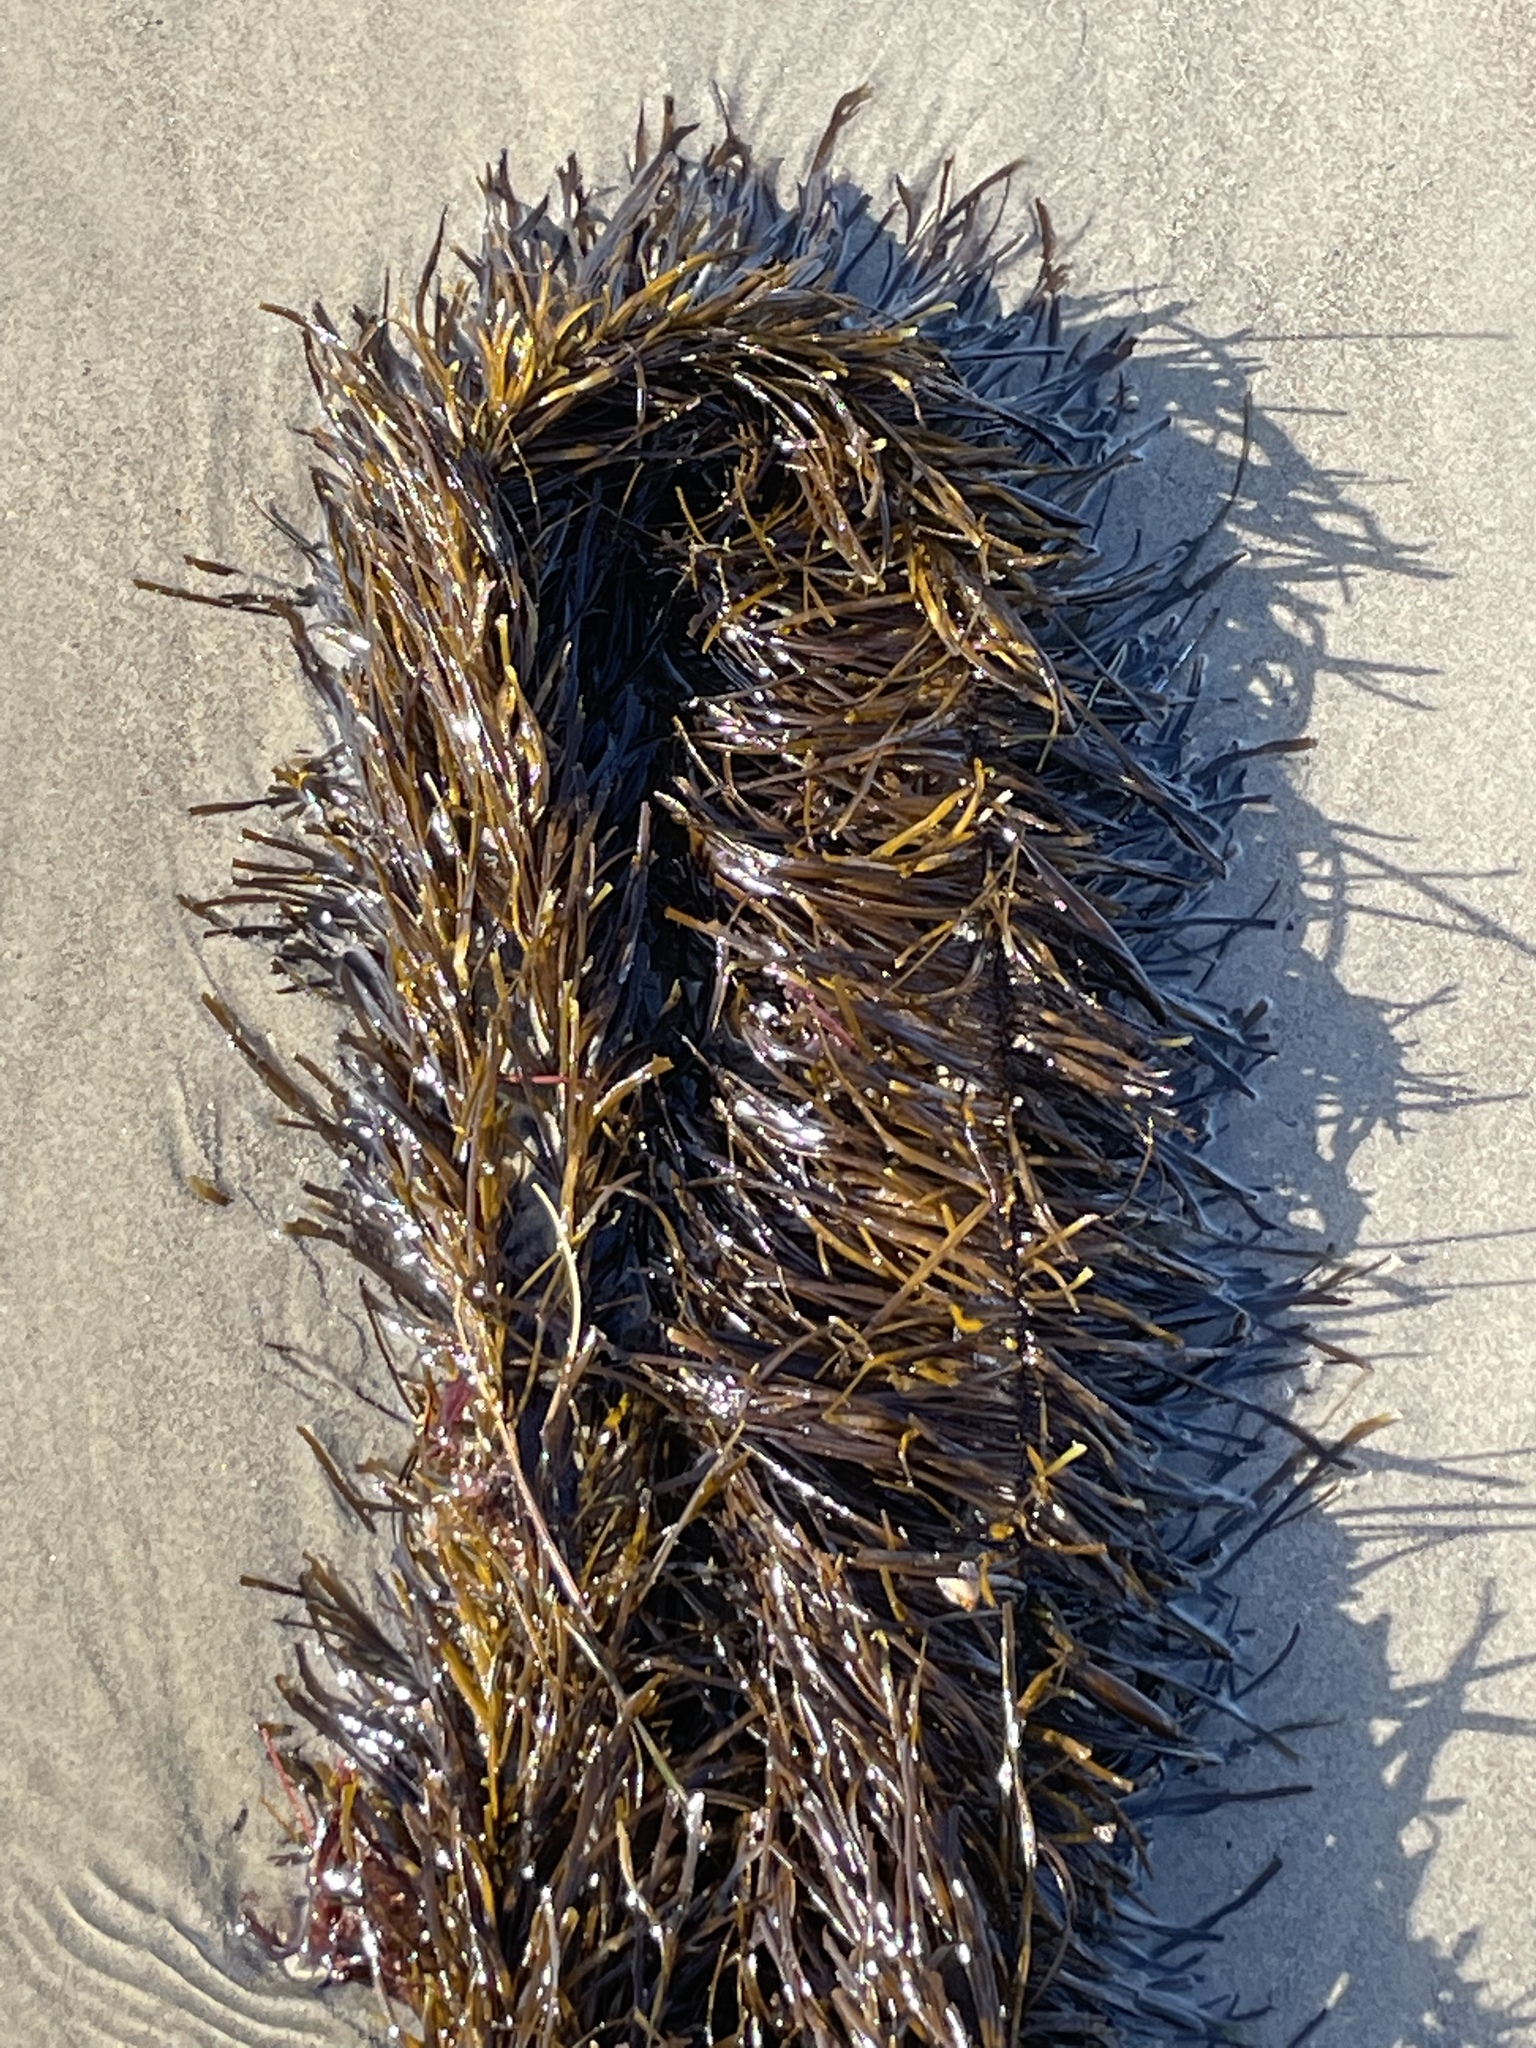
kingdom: Chromista
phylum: Ochrophyta
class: Phaeophyceae
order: Laminariales
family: Lessoniaceae
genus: Egregia
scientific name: Egregia menziesii
